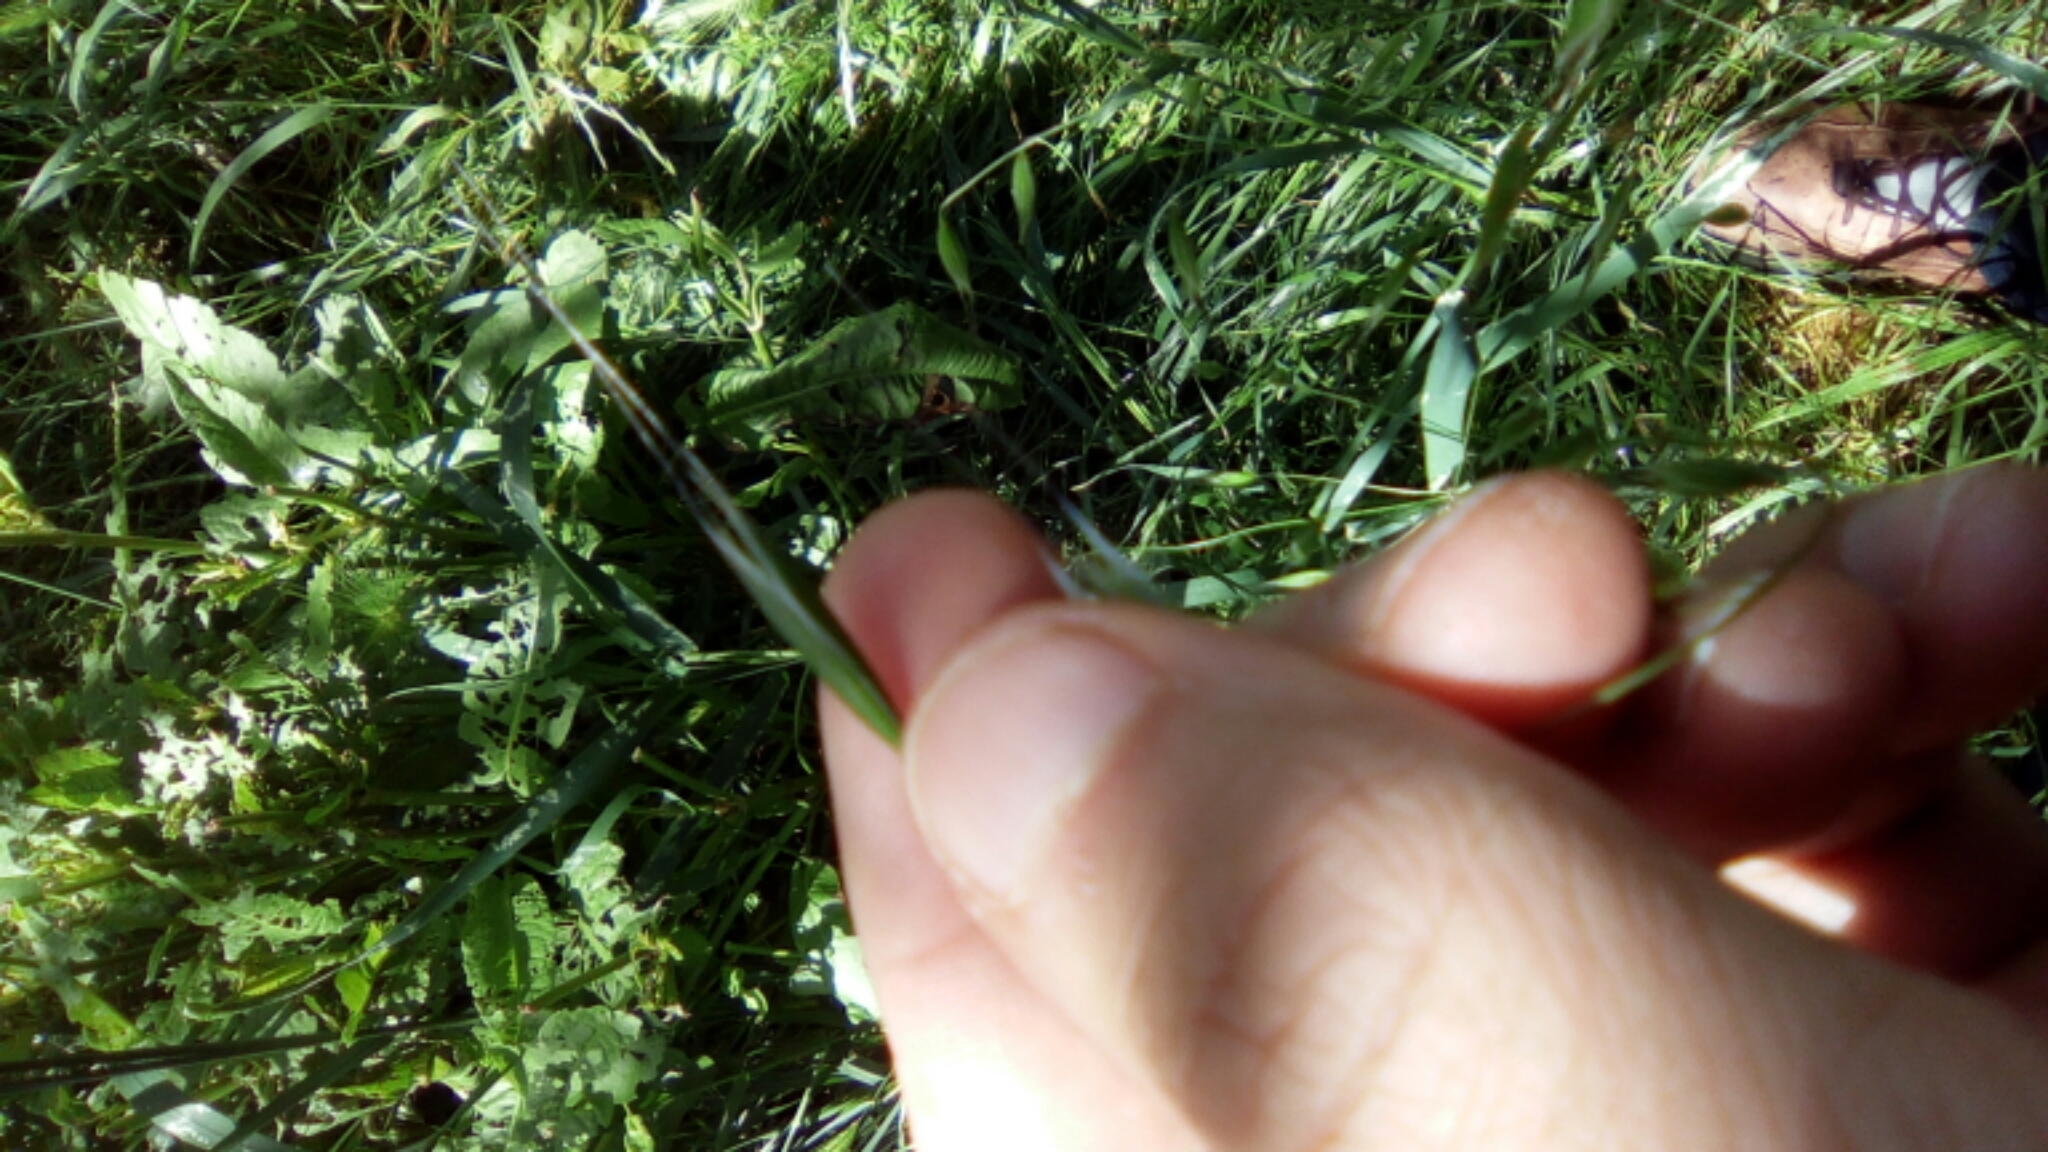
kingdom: Plantae
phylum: Tracheophyta
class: Liliopsida
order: Poales
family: Poaceae
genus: Avena
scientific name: Avena barbata
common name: Slender oat
